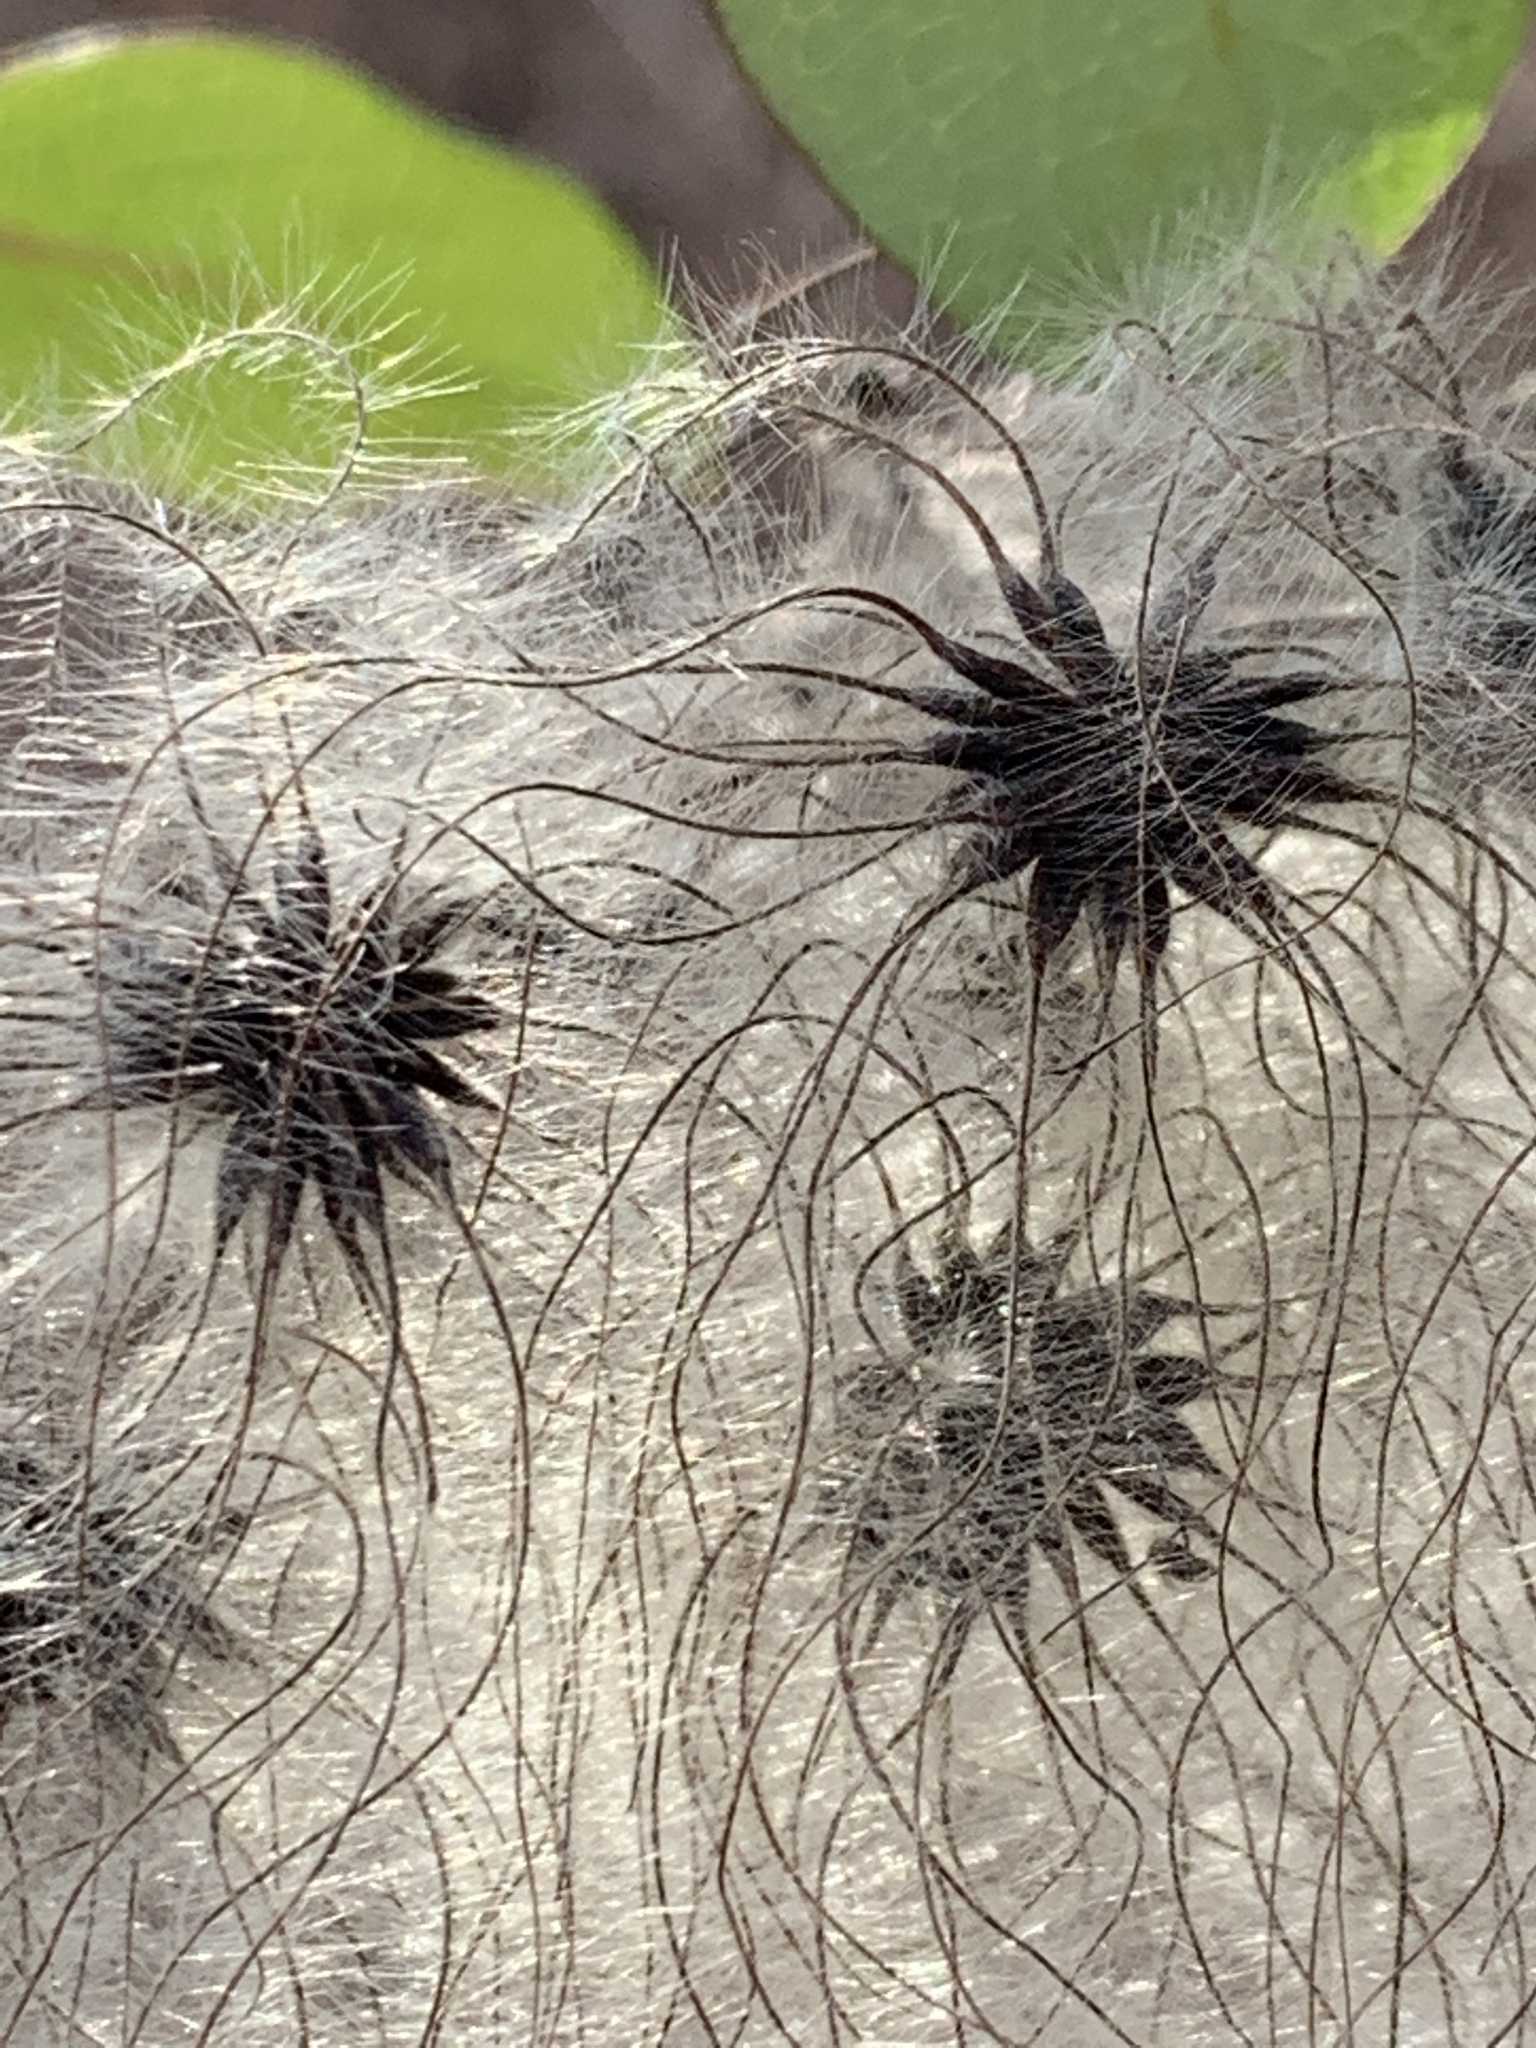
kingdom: Plantae
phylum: Tracheophyta
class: Magnoliopsida
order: Ranunculales
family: Ranunculaceae
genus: Clematis
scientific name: Clematis virginiana
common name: Virgin's-bower
